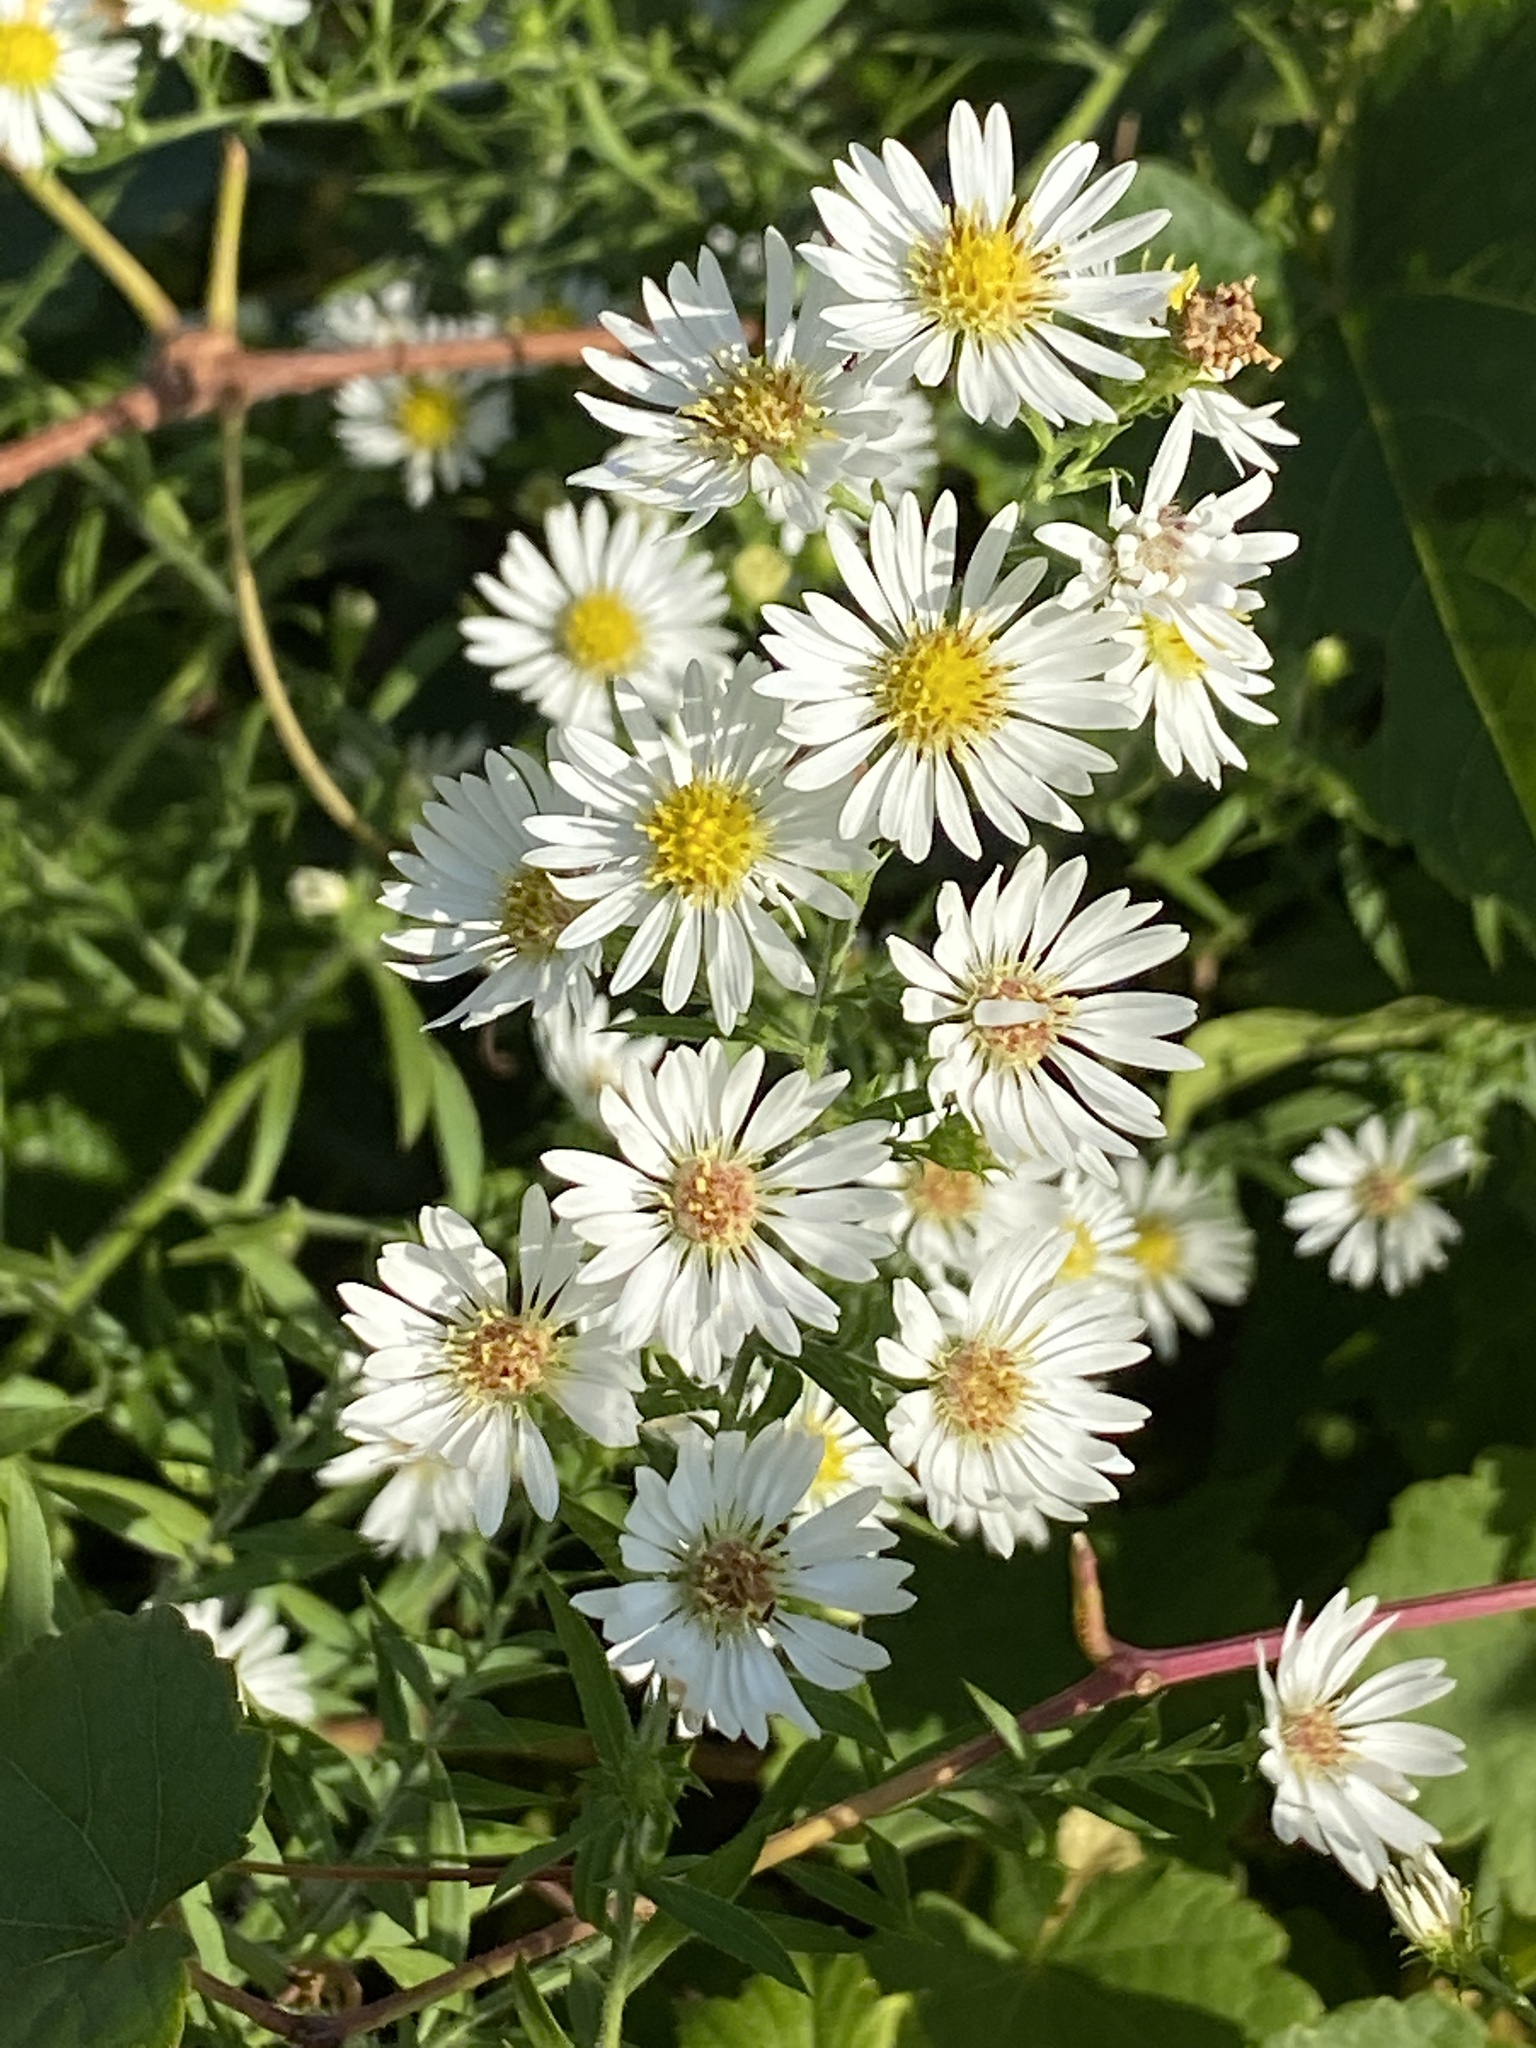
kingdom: Plantae
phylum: Tracheophyta
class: Magnoliopsida
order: Asterales
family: Asteraceae
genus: Symphyotrichum
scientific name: Symphyotrichum pilosum
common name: Awl aster
